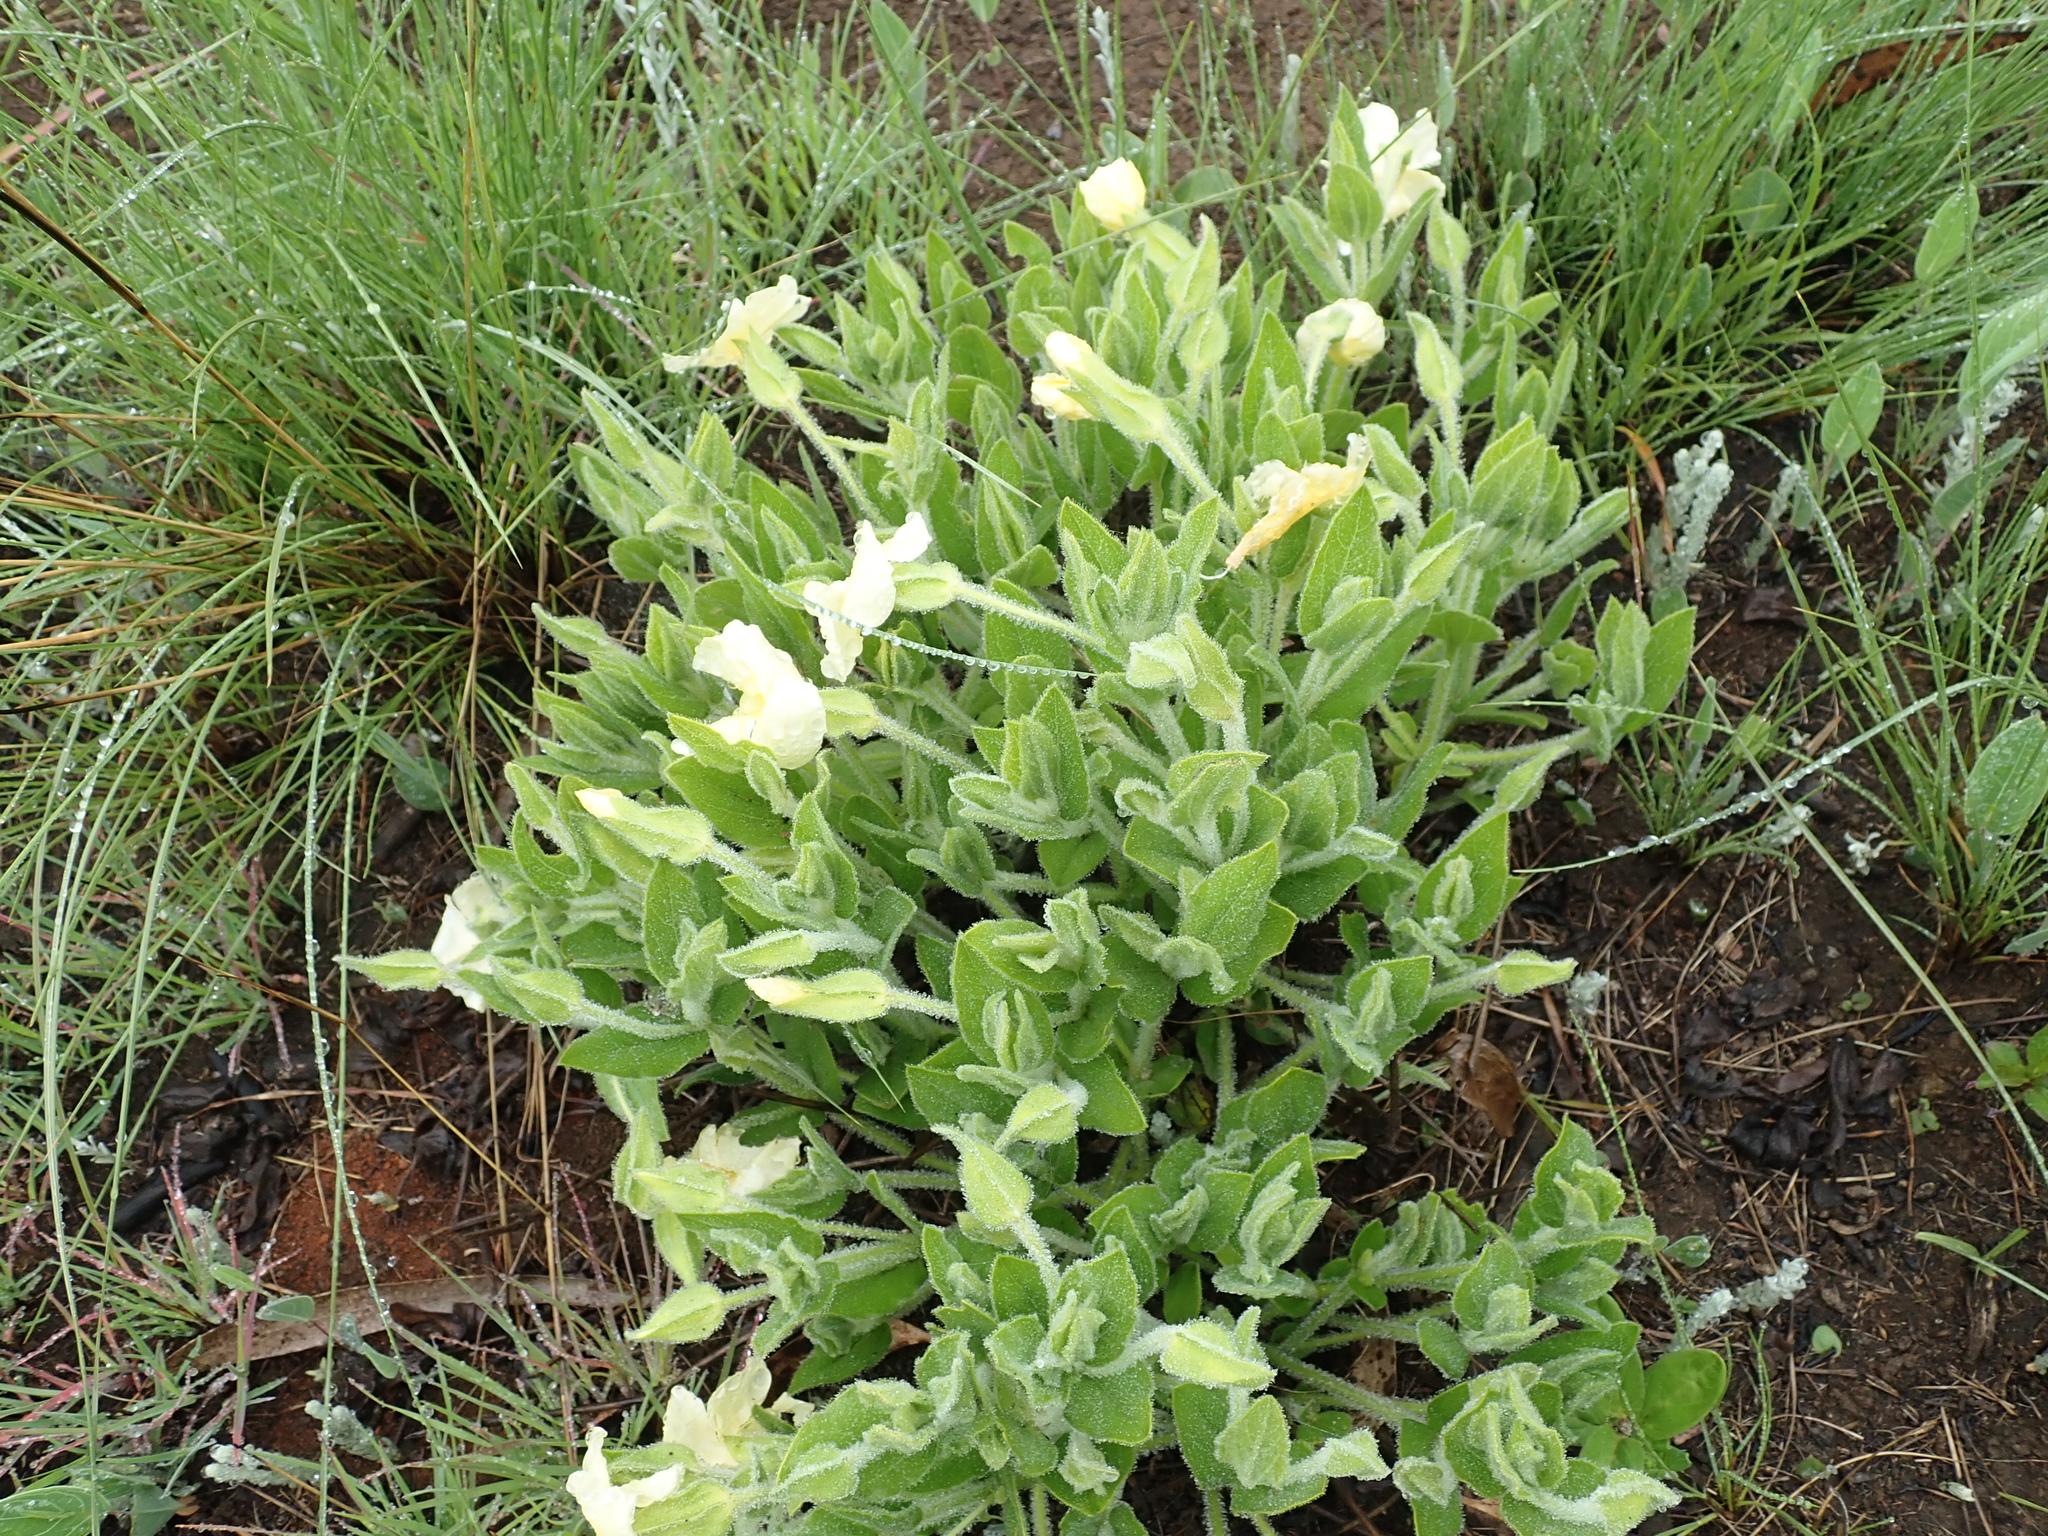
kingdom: Plantae
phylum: Tracheophyta
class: Magnoliopsida
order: Lamiales
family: Acanthaceae
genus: Thunbergia
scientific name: Thunbergia atriplicifolia
